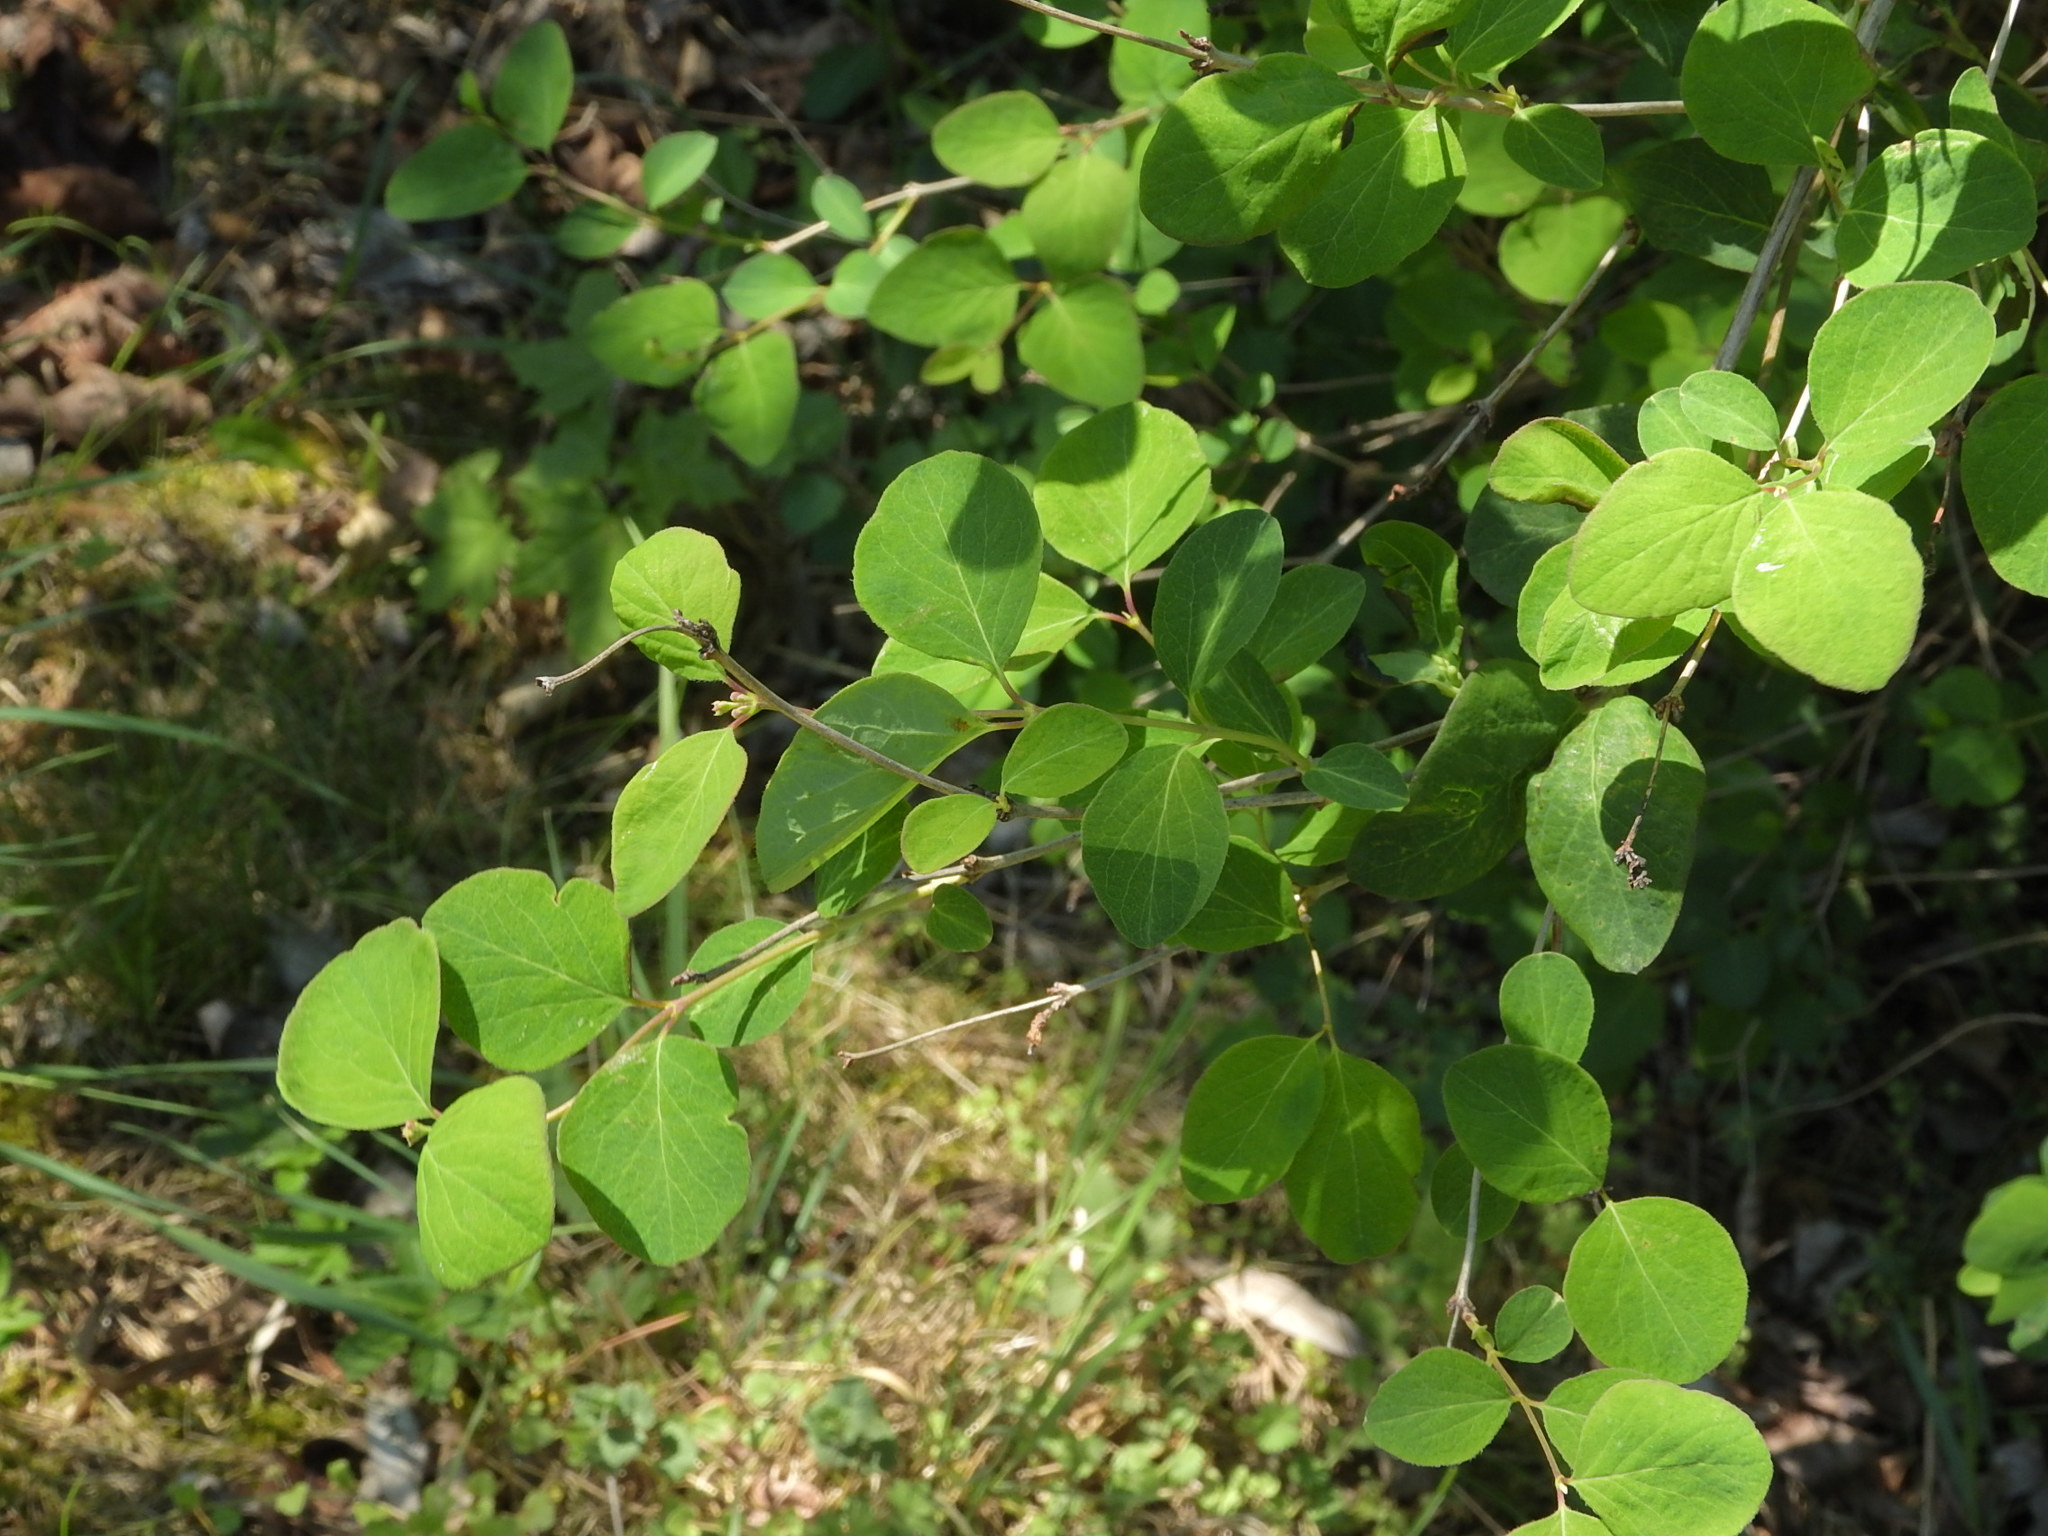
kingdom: Plantae
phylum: Tracheophyta
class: Magnoliopsida
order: Dipsacales
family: Caprifoliaceae
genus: Symphoricarpos
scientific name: Symphoricarpos albus
